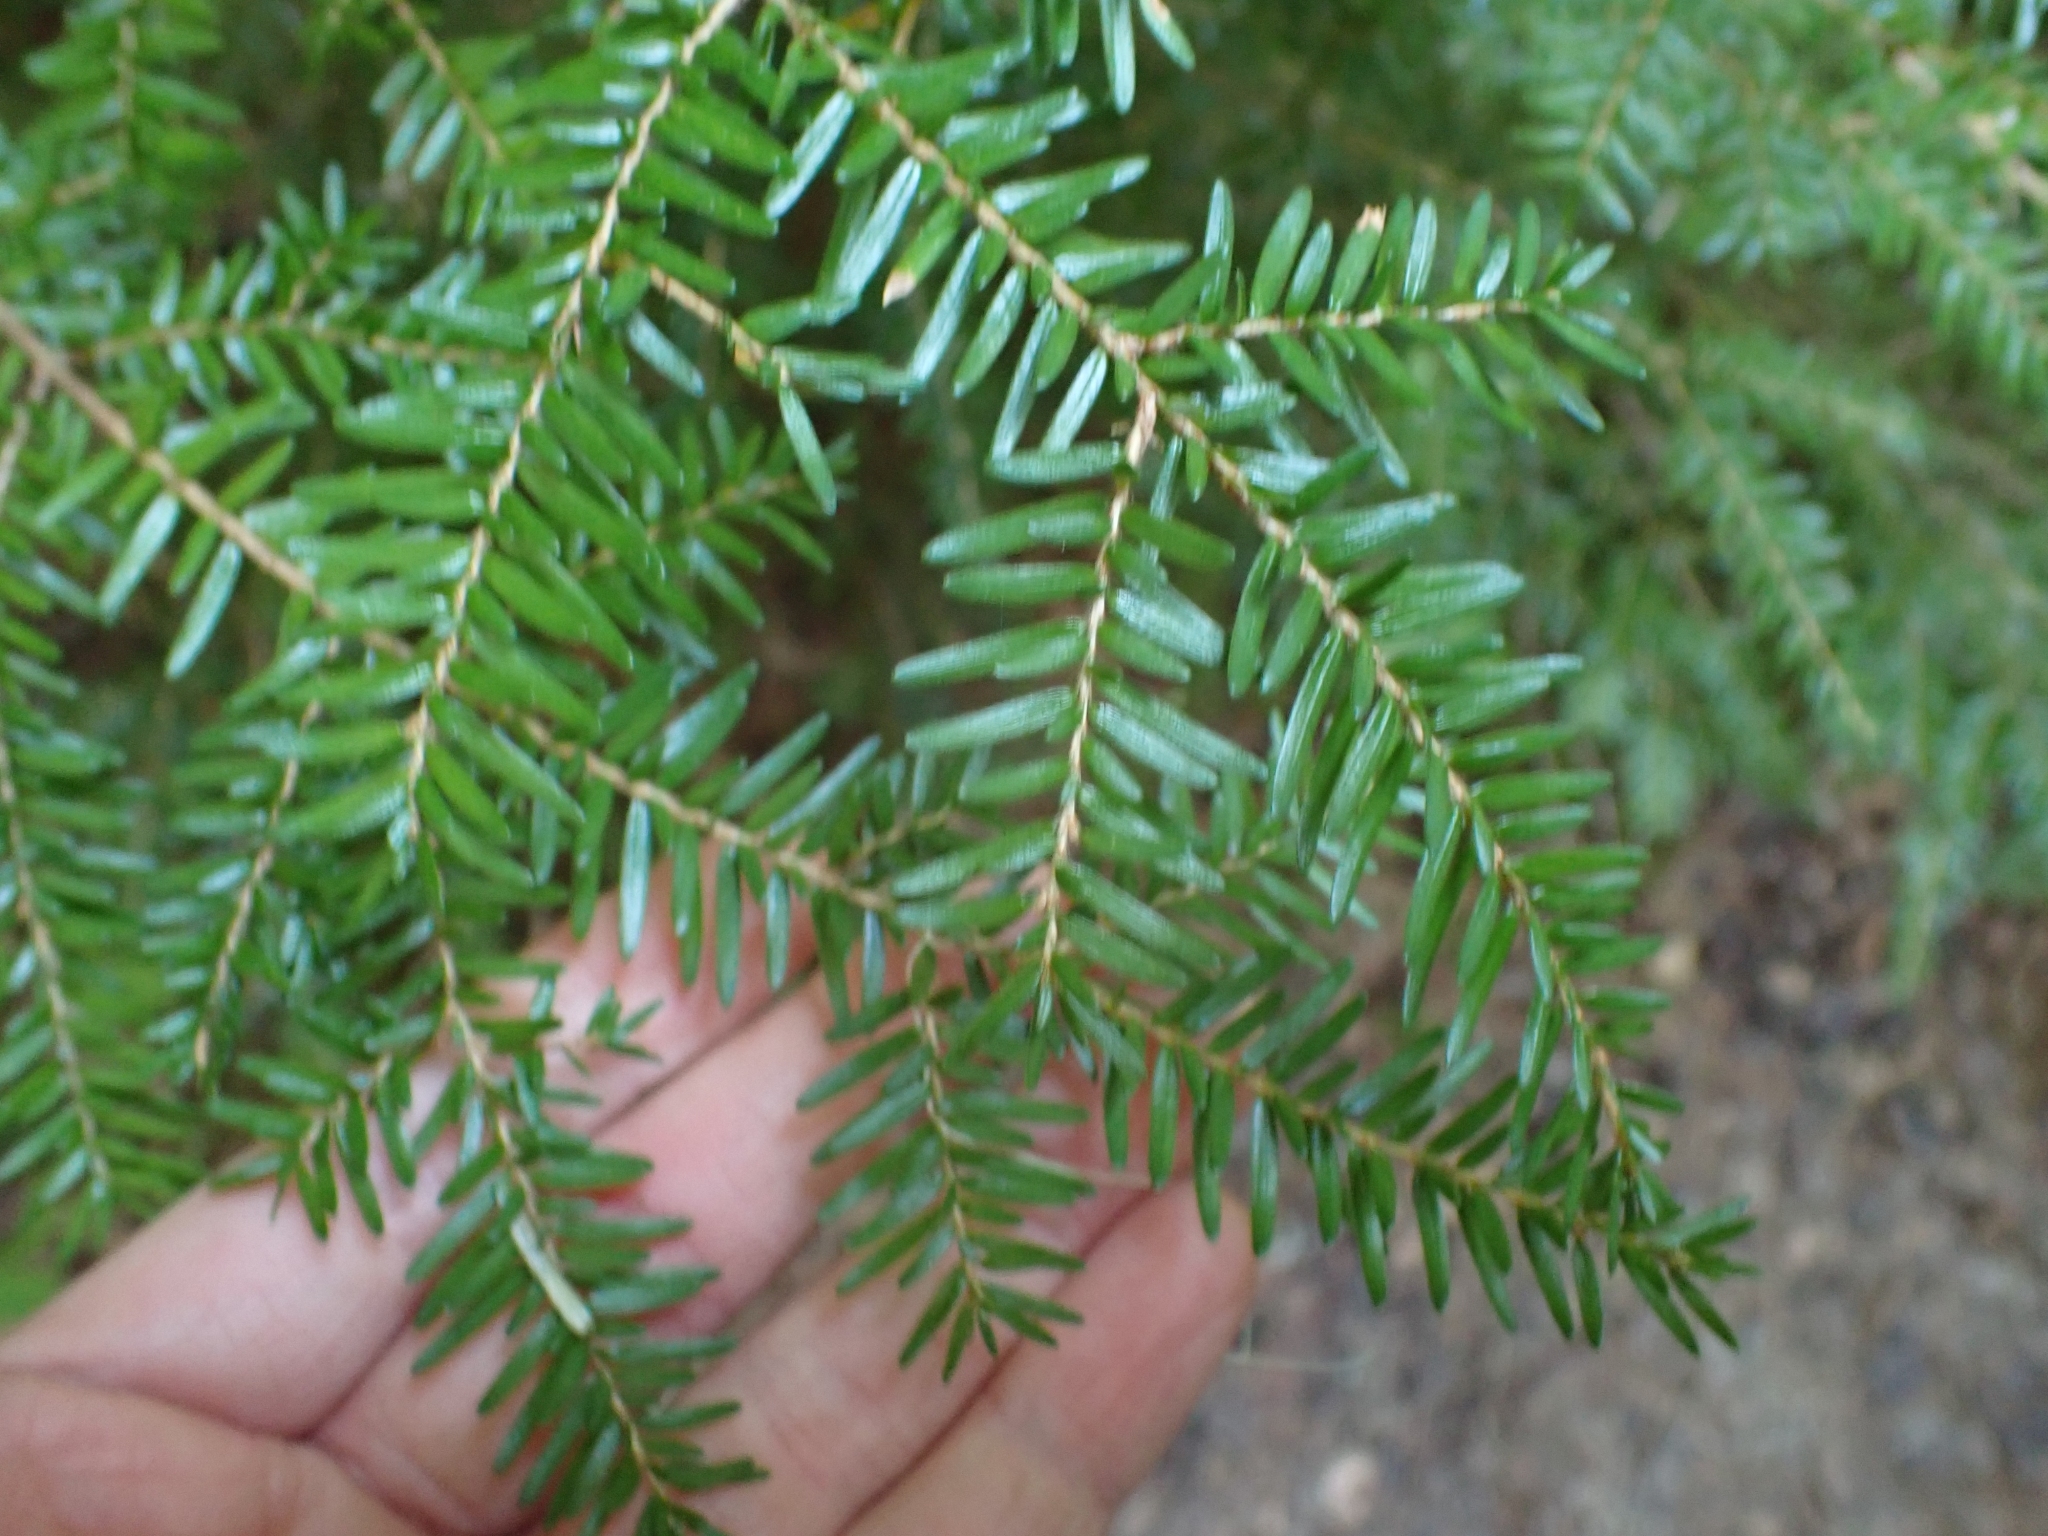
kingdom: Plantae
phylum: Tracheophyta
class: Pinopsida
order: Pinales
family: Pinaceae
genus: Tsuga
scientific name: Tsuga heterophylla
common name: Western hemlock
